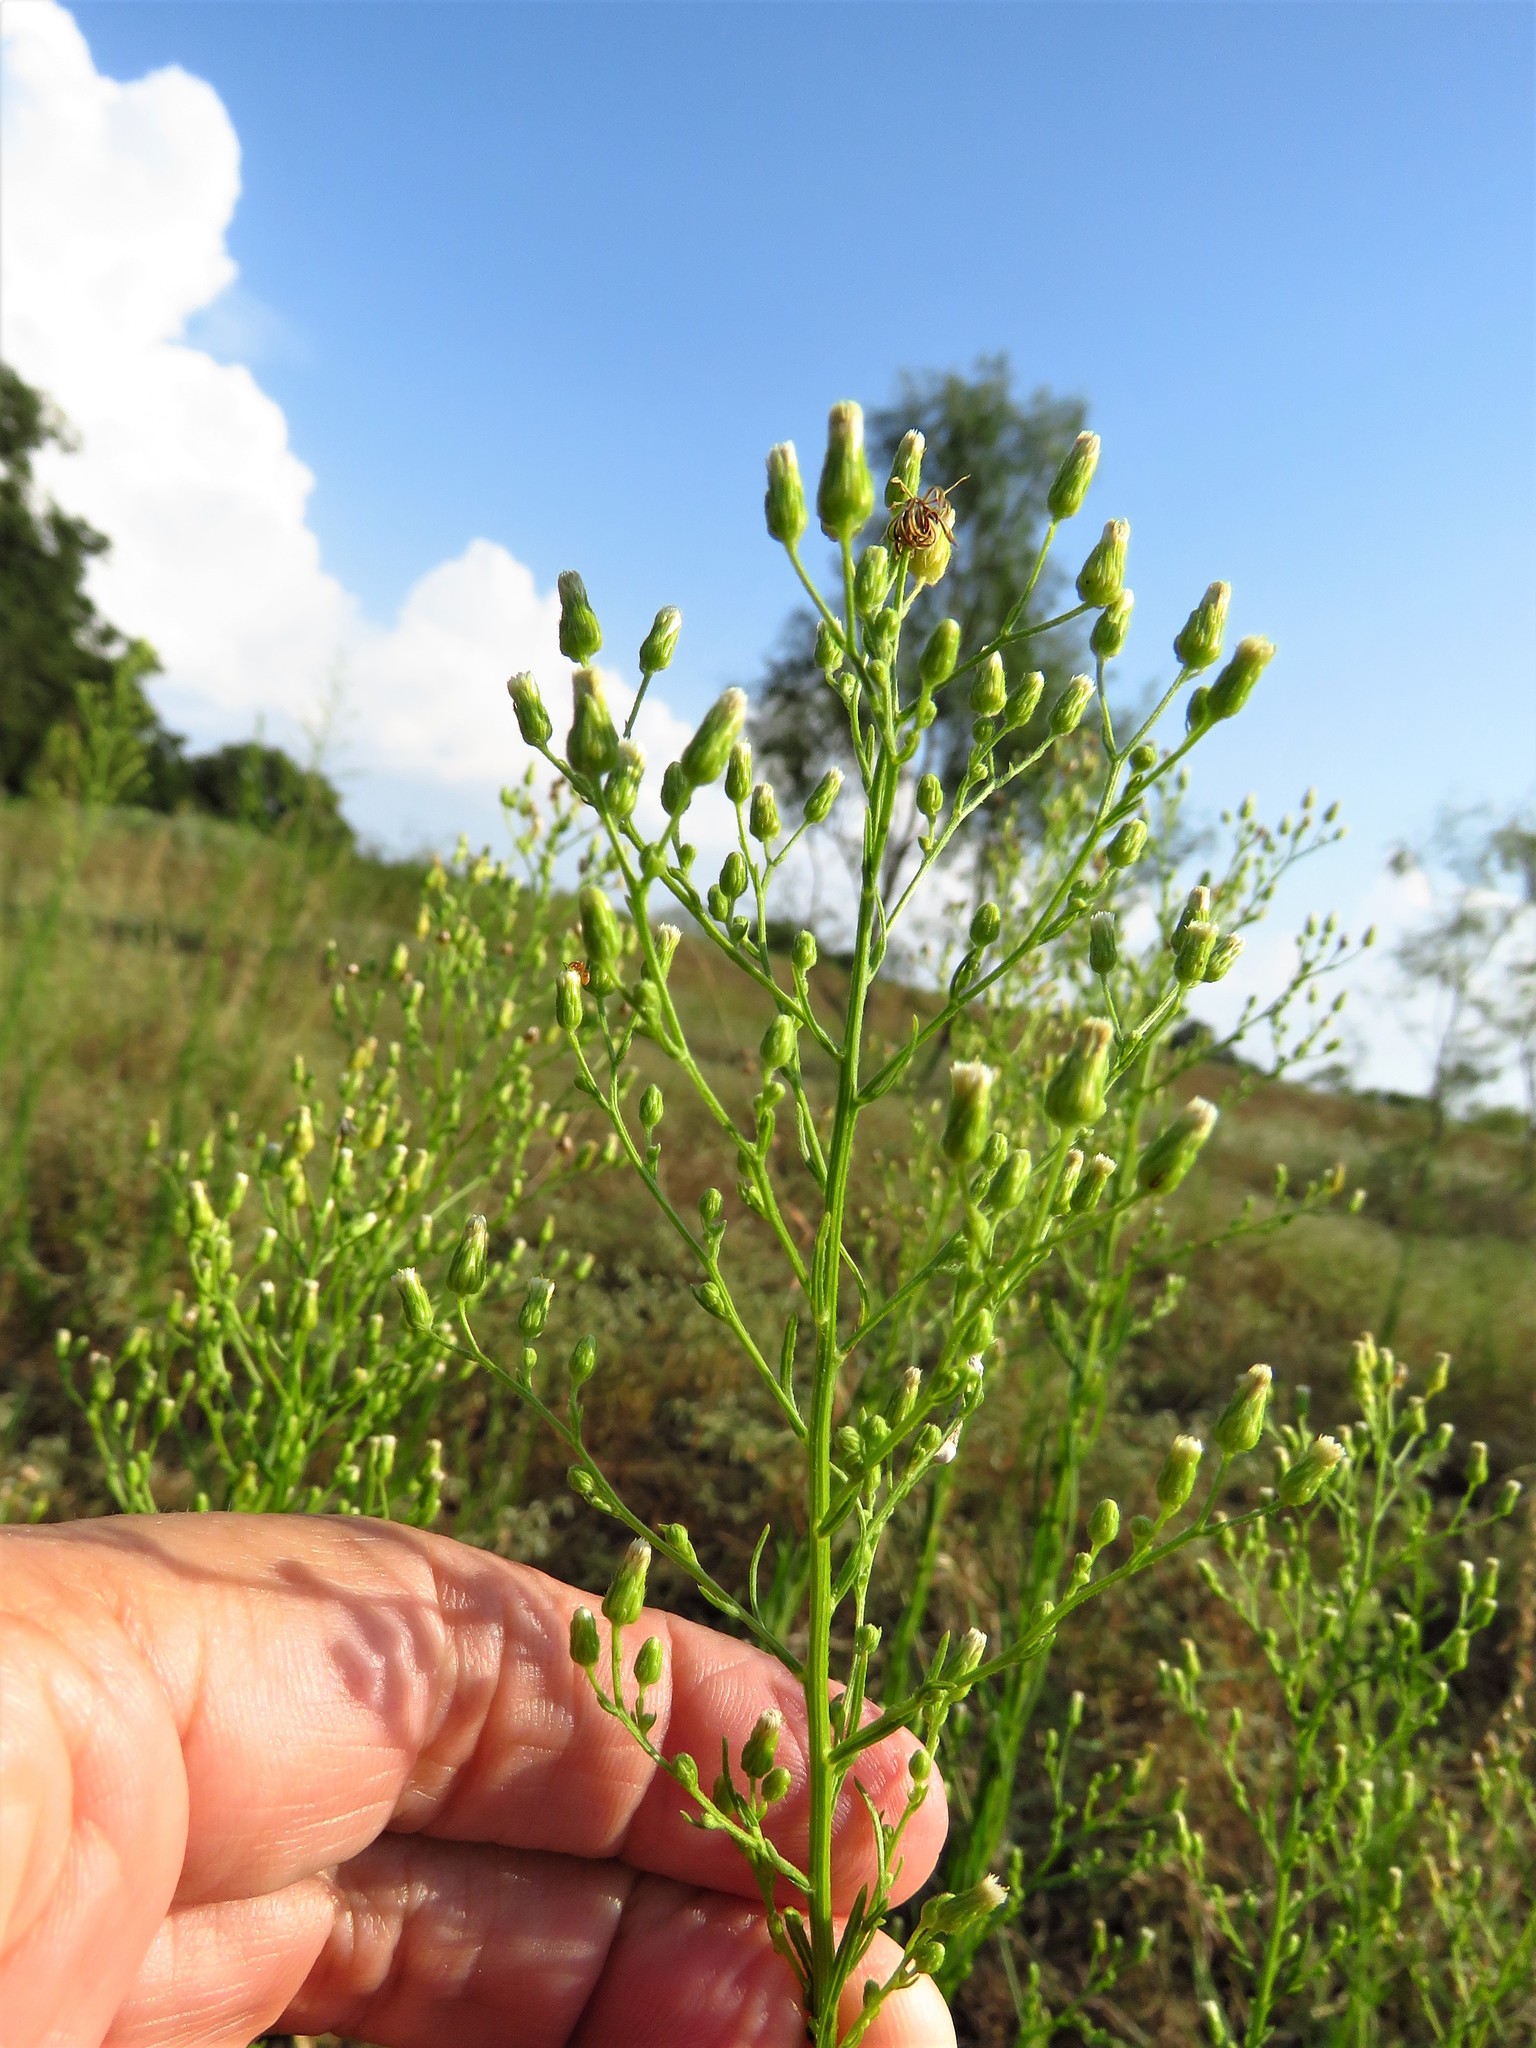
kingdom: Plantae
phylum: Tracheophyta
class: Magnoliopsida
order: Asterales
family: Asteraceae
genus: Erigeron
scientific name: Erigeron canadensis
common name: Canadian fleabane
